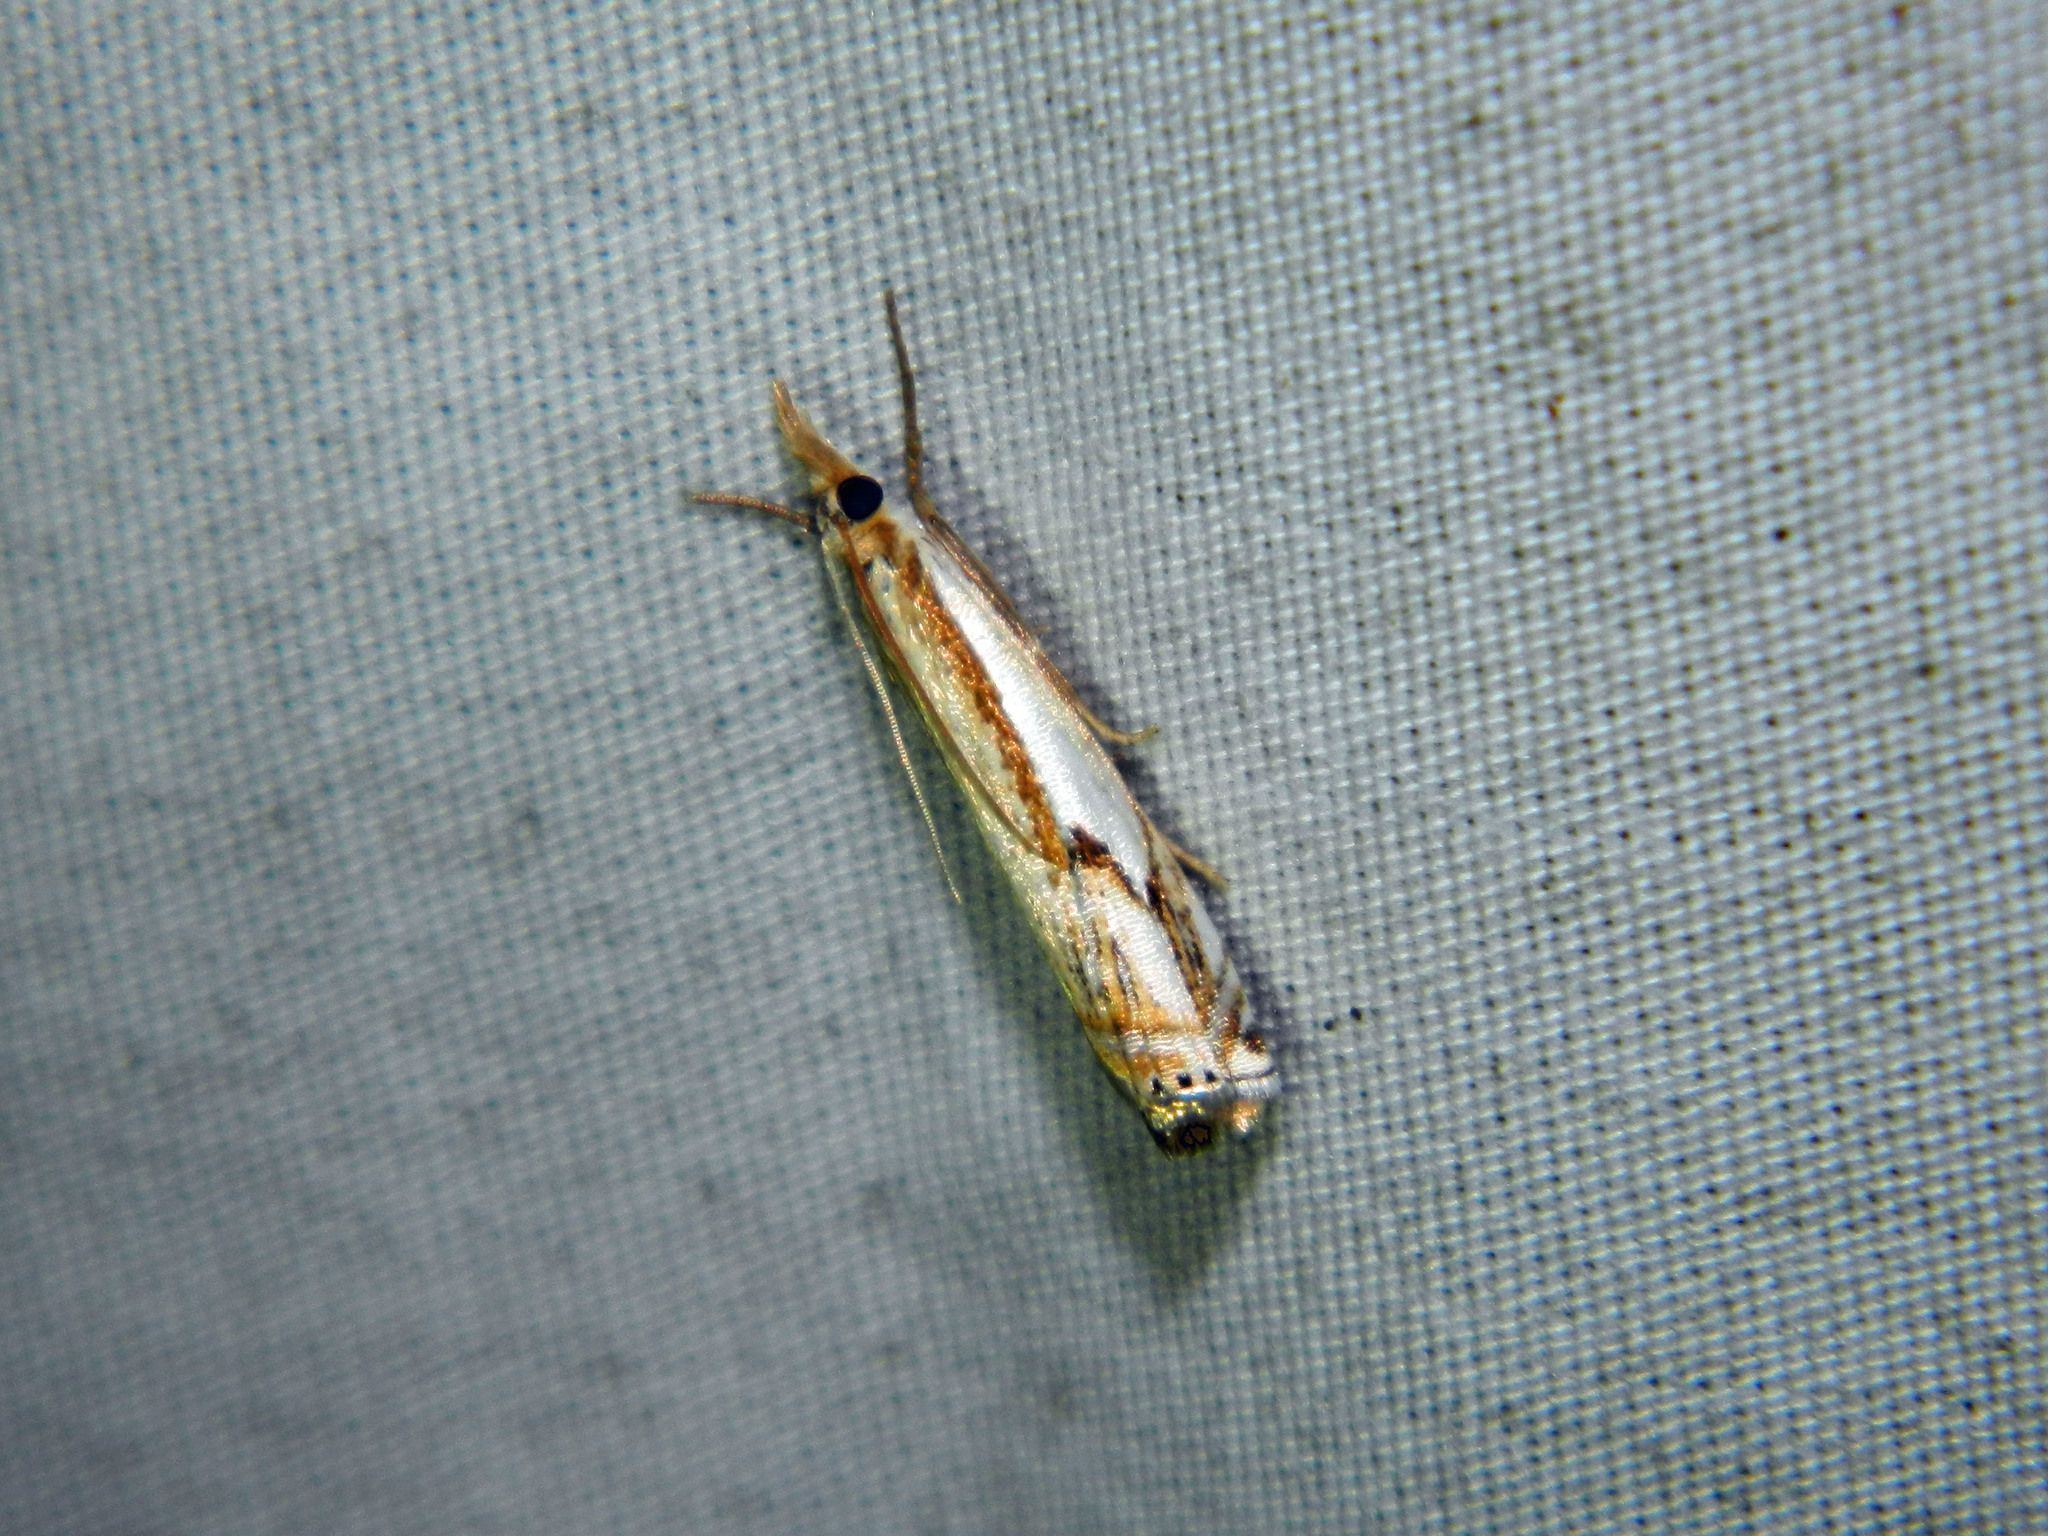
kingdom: Animalia
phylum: Arthropoda
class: Insecta
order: Lepidoptera
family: Crambidae
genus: Crambus
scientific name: Crambus agitatellus
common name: Double-banded grass-veneer
